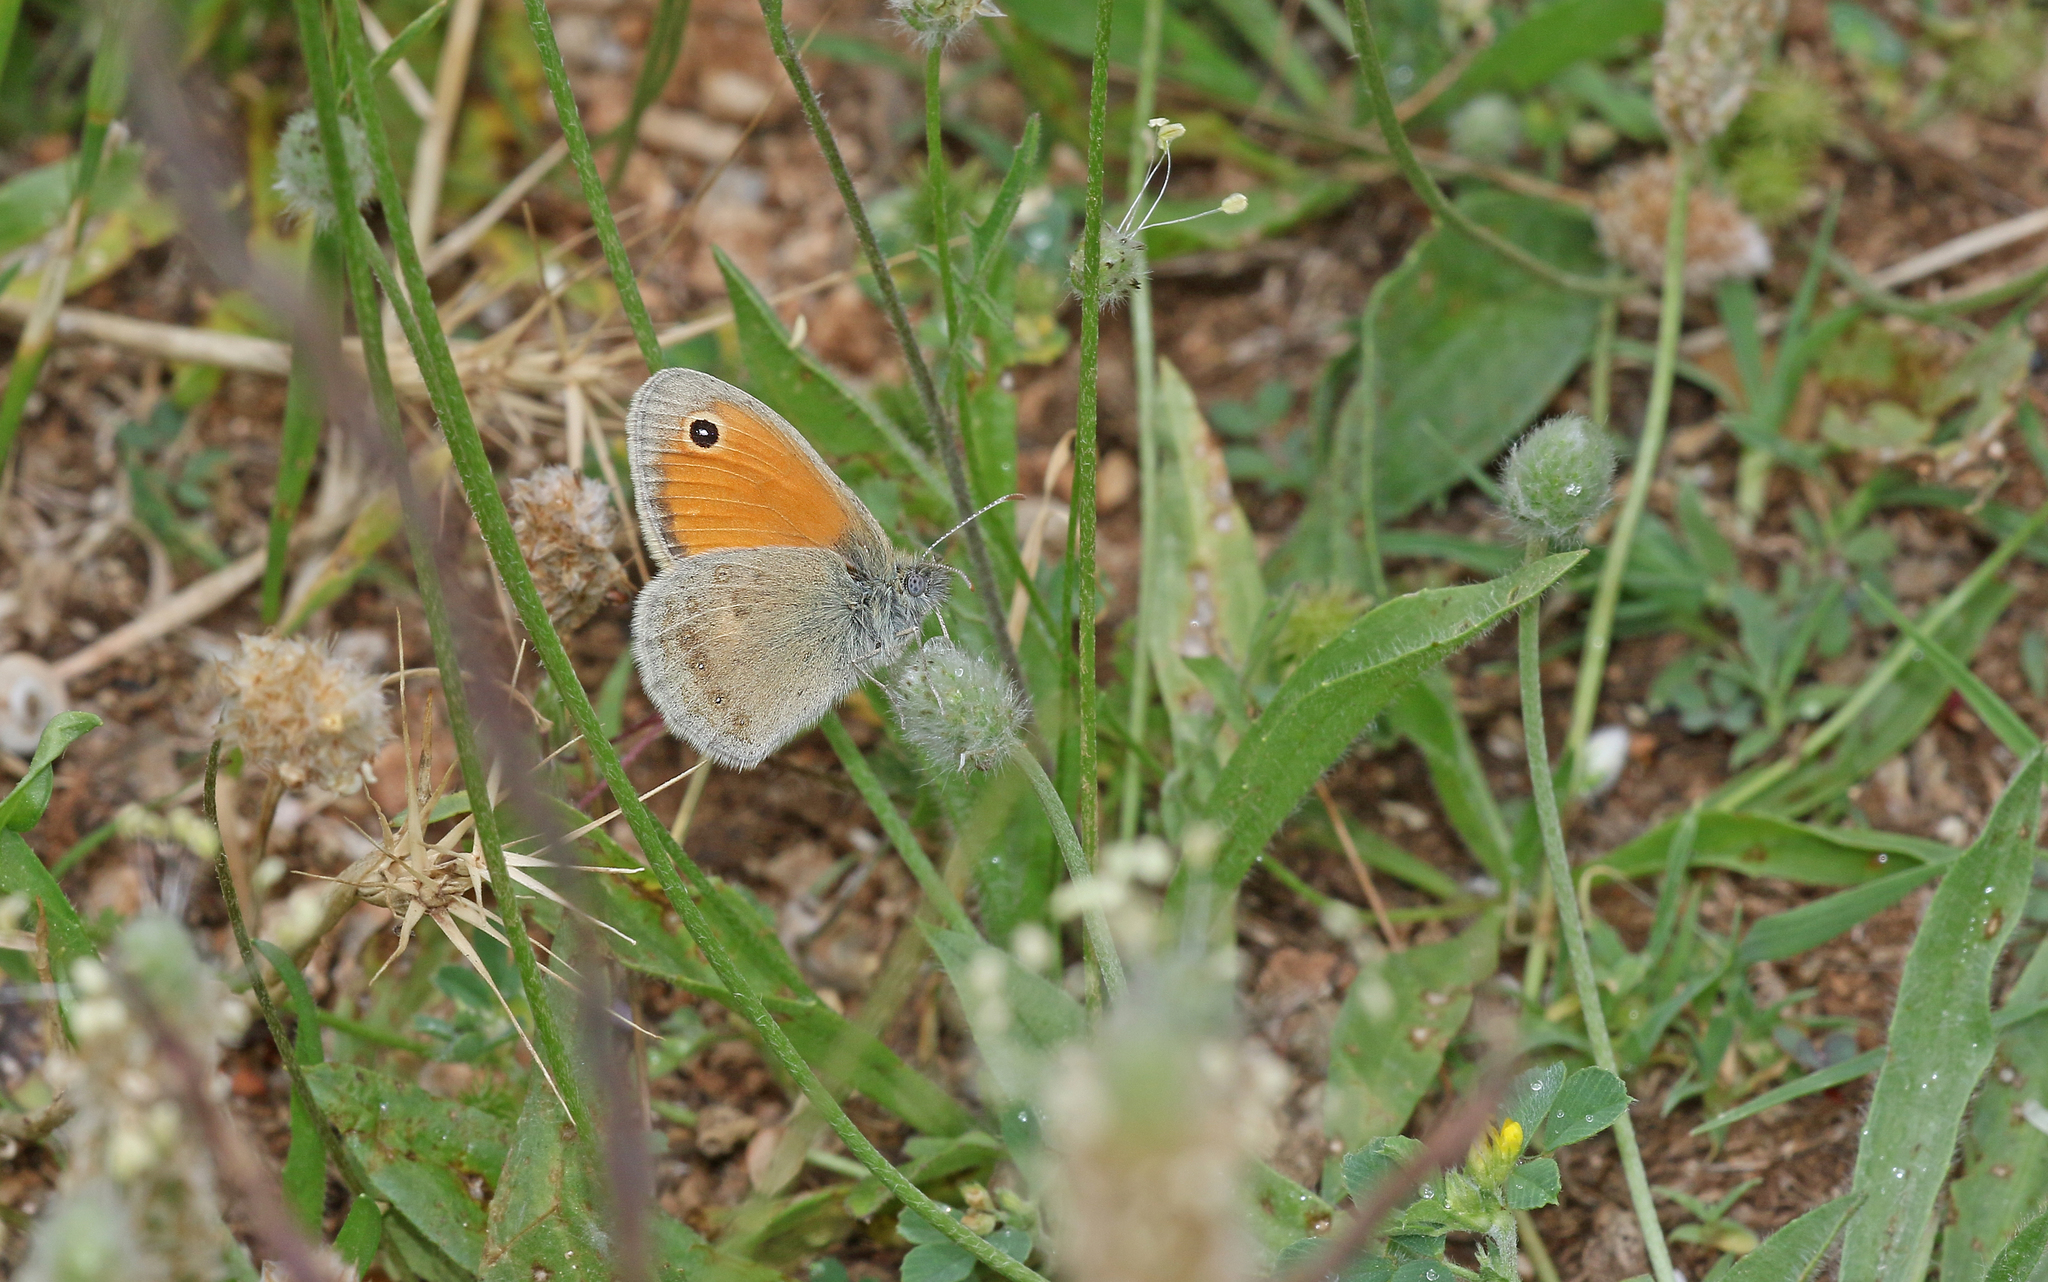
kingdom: Animalia
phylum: Arthropoda
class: Insecta
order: Lepidoptera
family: Nymphalidae
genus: Coenonympha
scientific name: Coenonympha pamphilus
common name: Small heath
